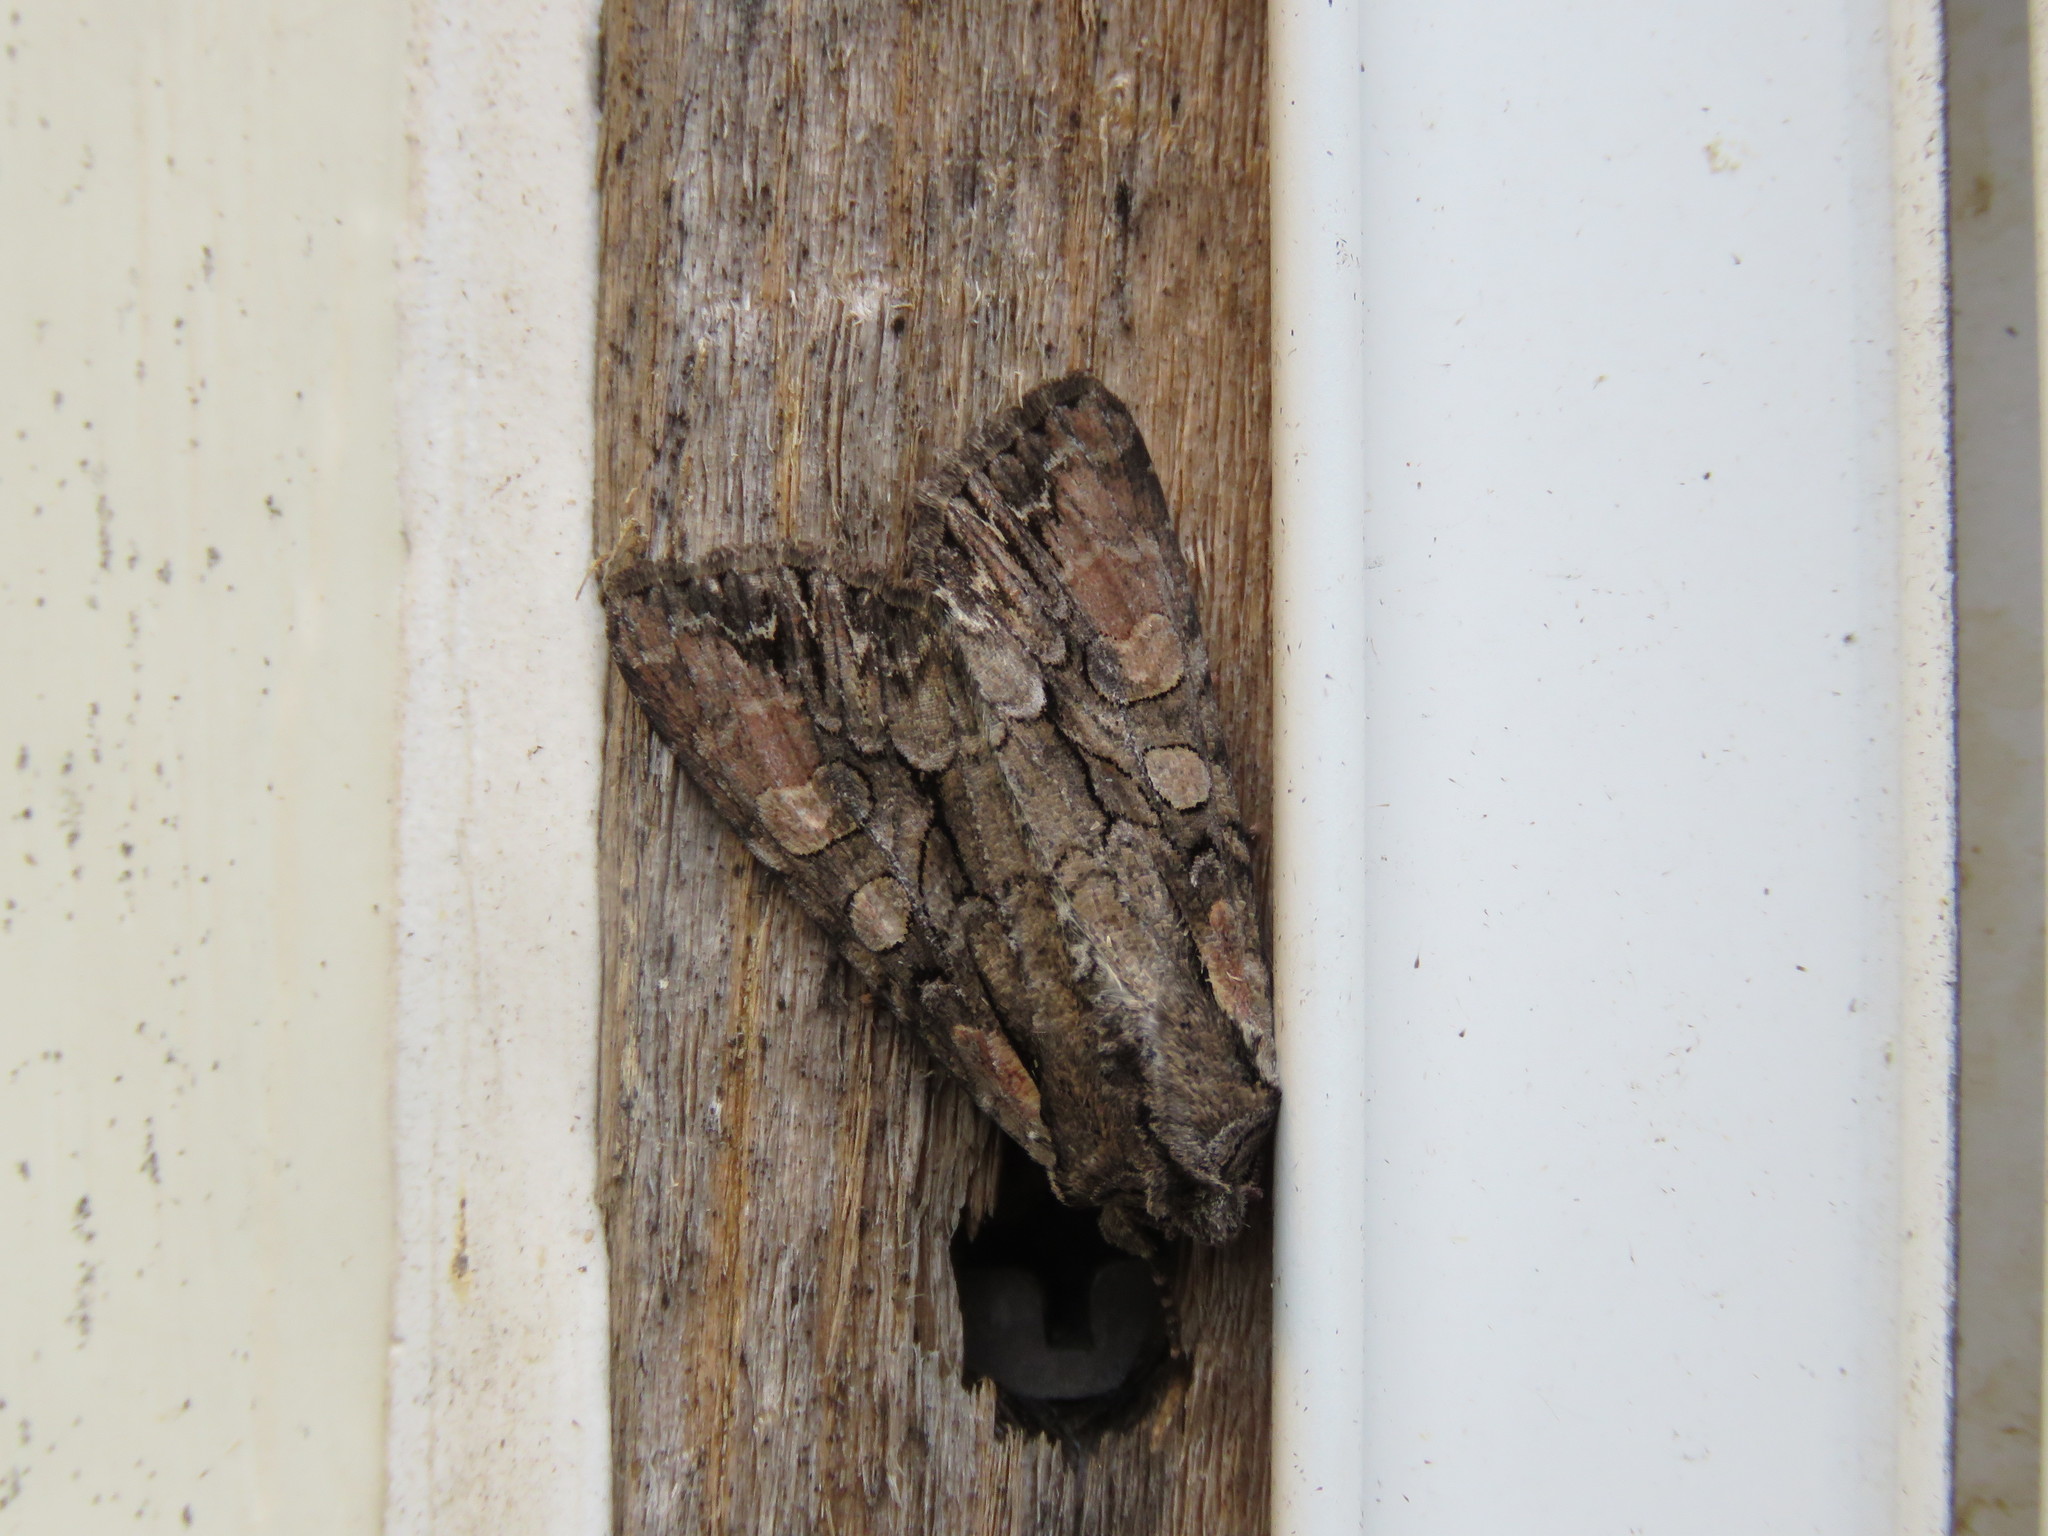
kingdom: Animalia
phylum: Arthropoda
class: Insecta
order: Lepidoptera
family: Noctuidae
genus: Lacanobia
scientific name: Lacanobia subjuncta
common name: Speckled cutworm moth
